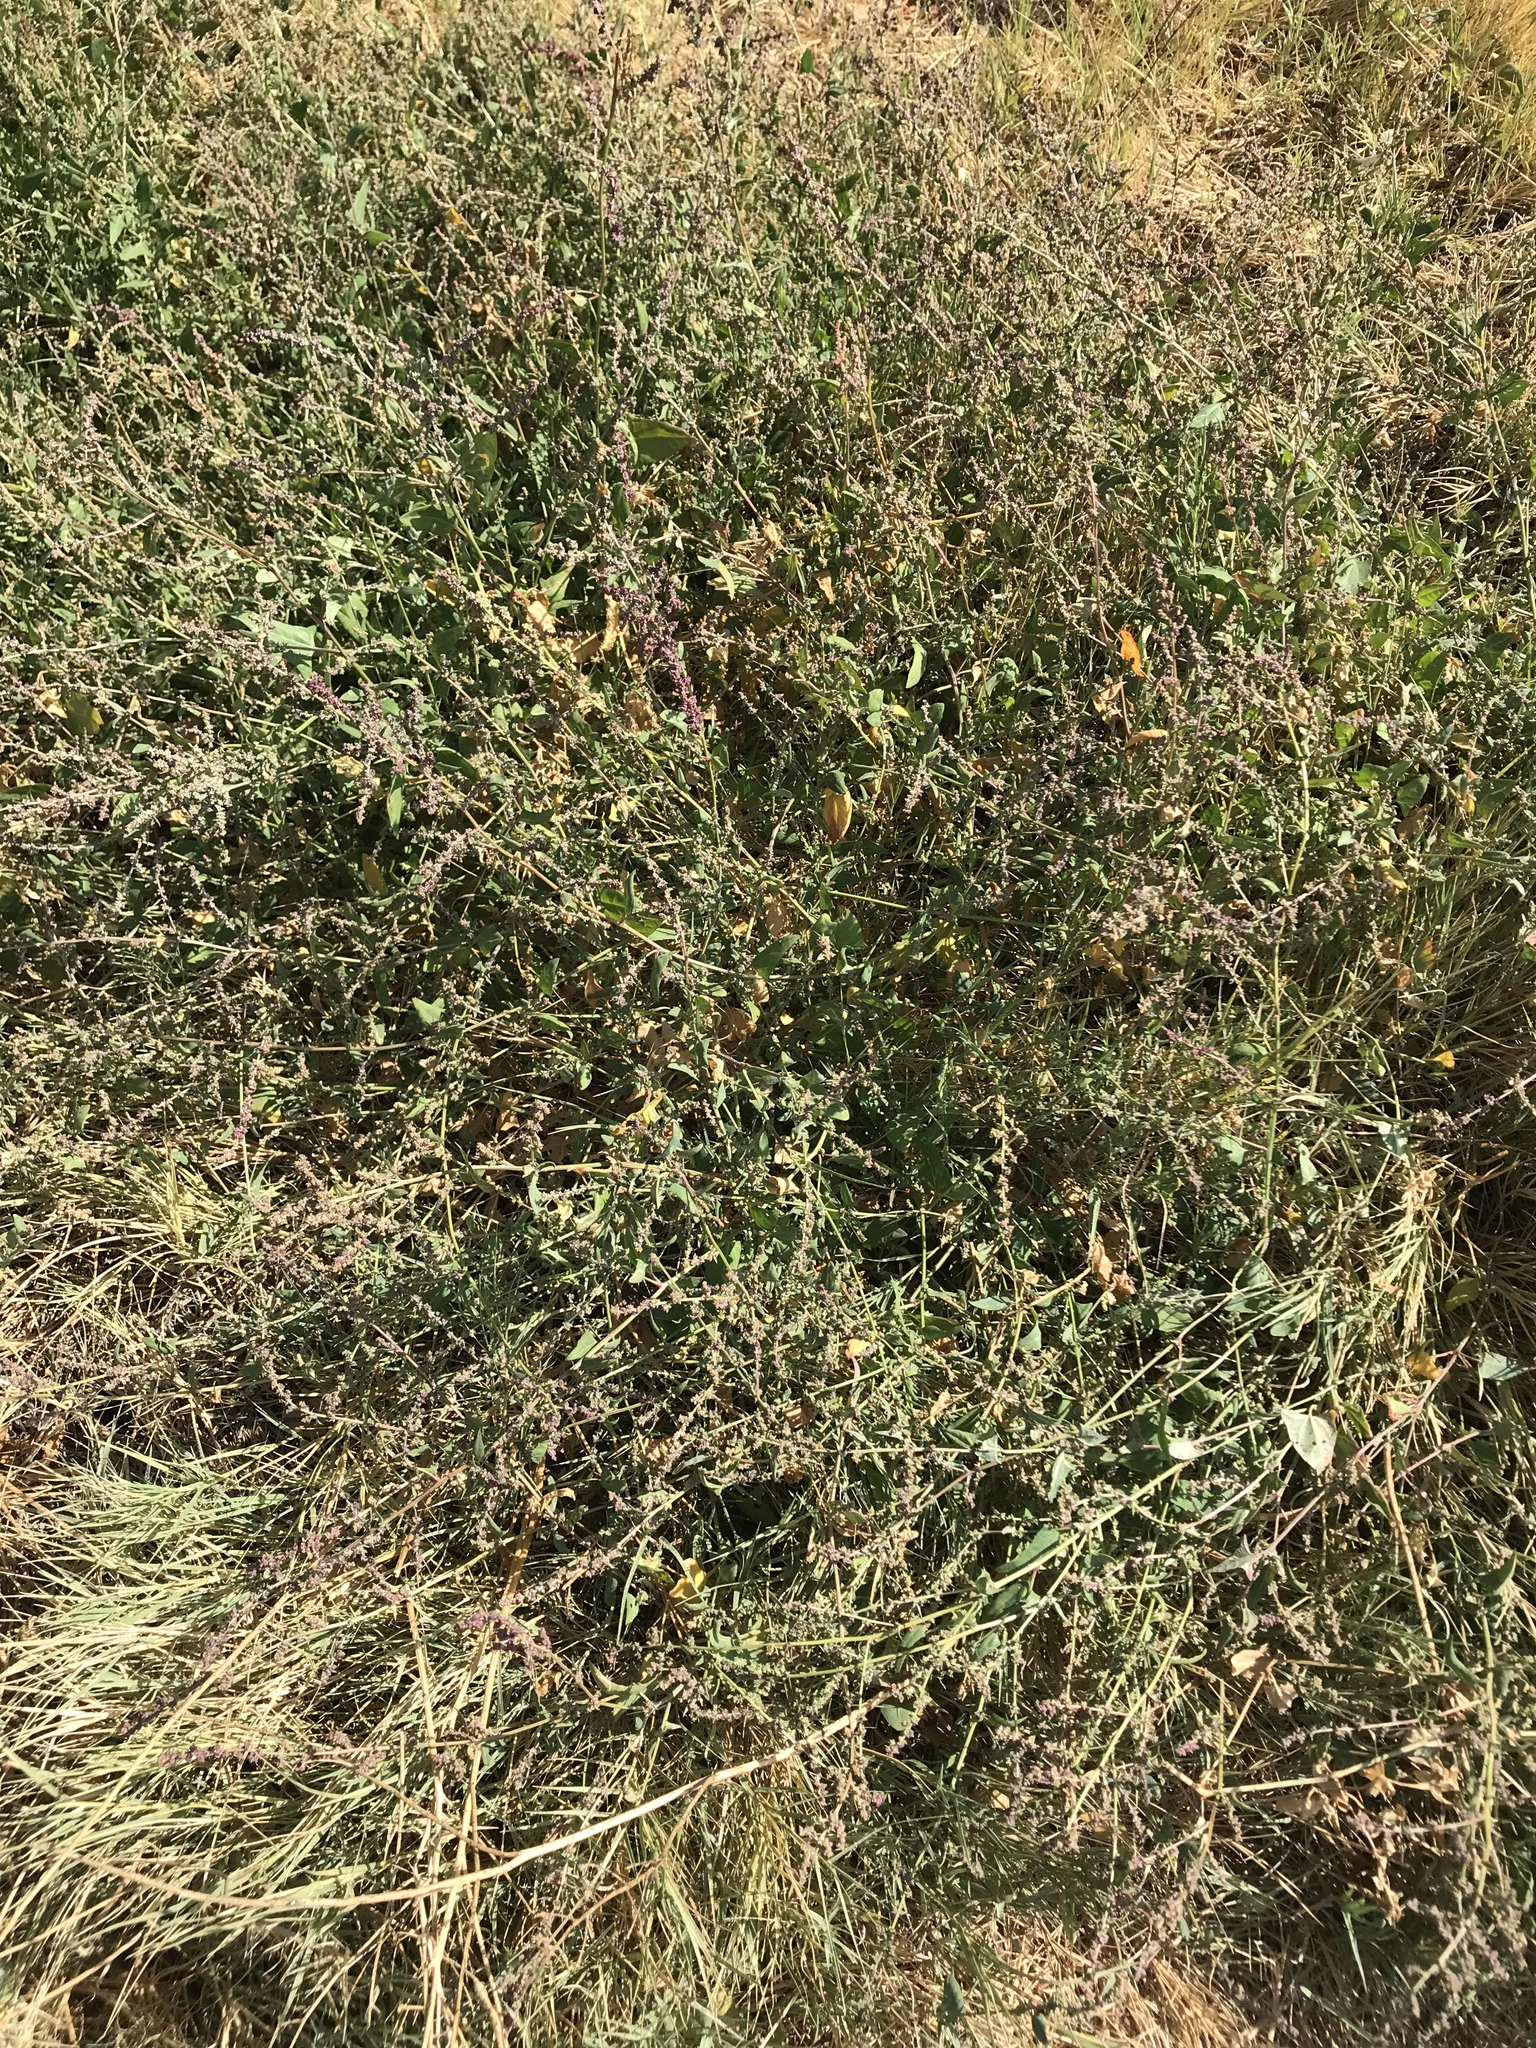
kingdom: Plantae
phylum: Tracheophyta
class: Magnoliopsida
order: Caryophyllales
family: Amaranthaceae
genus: Atriplex
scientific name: Atriplex prostrata
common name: Spear-leaved orache
